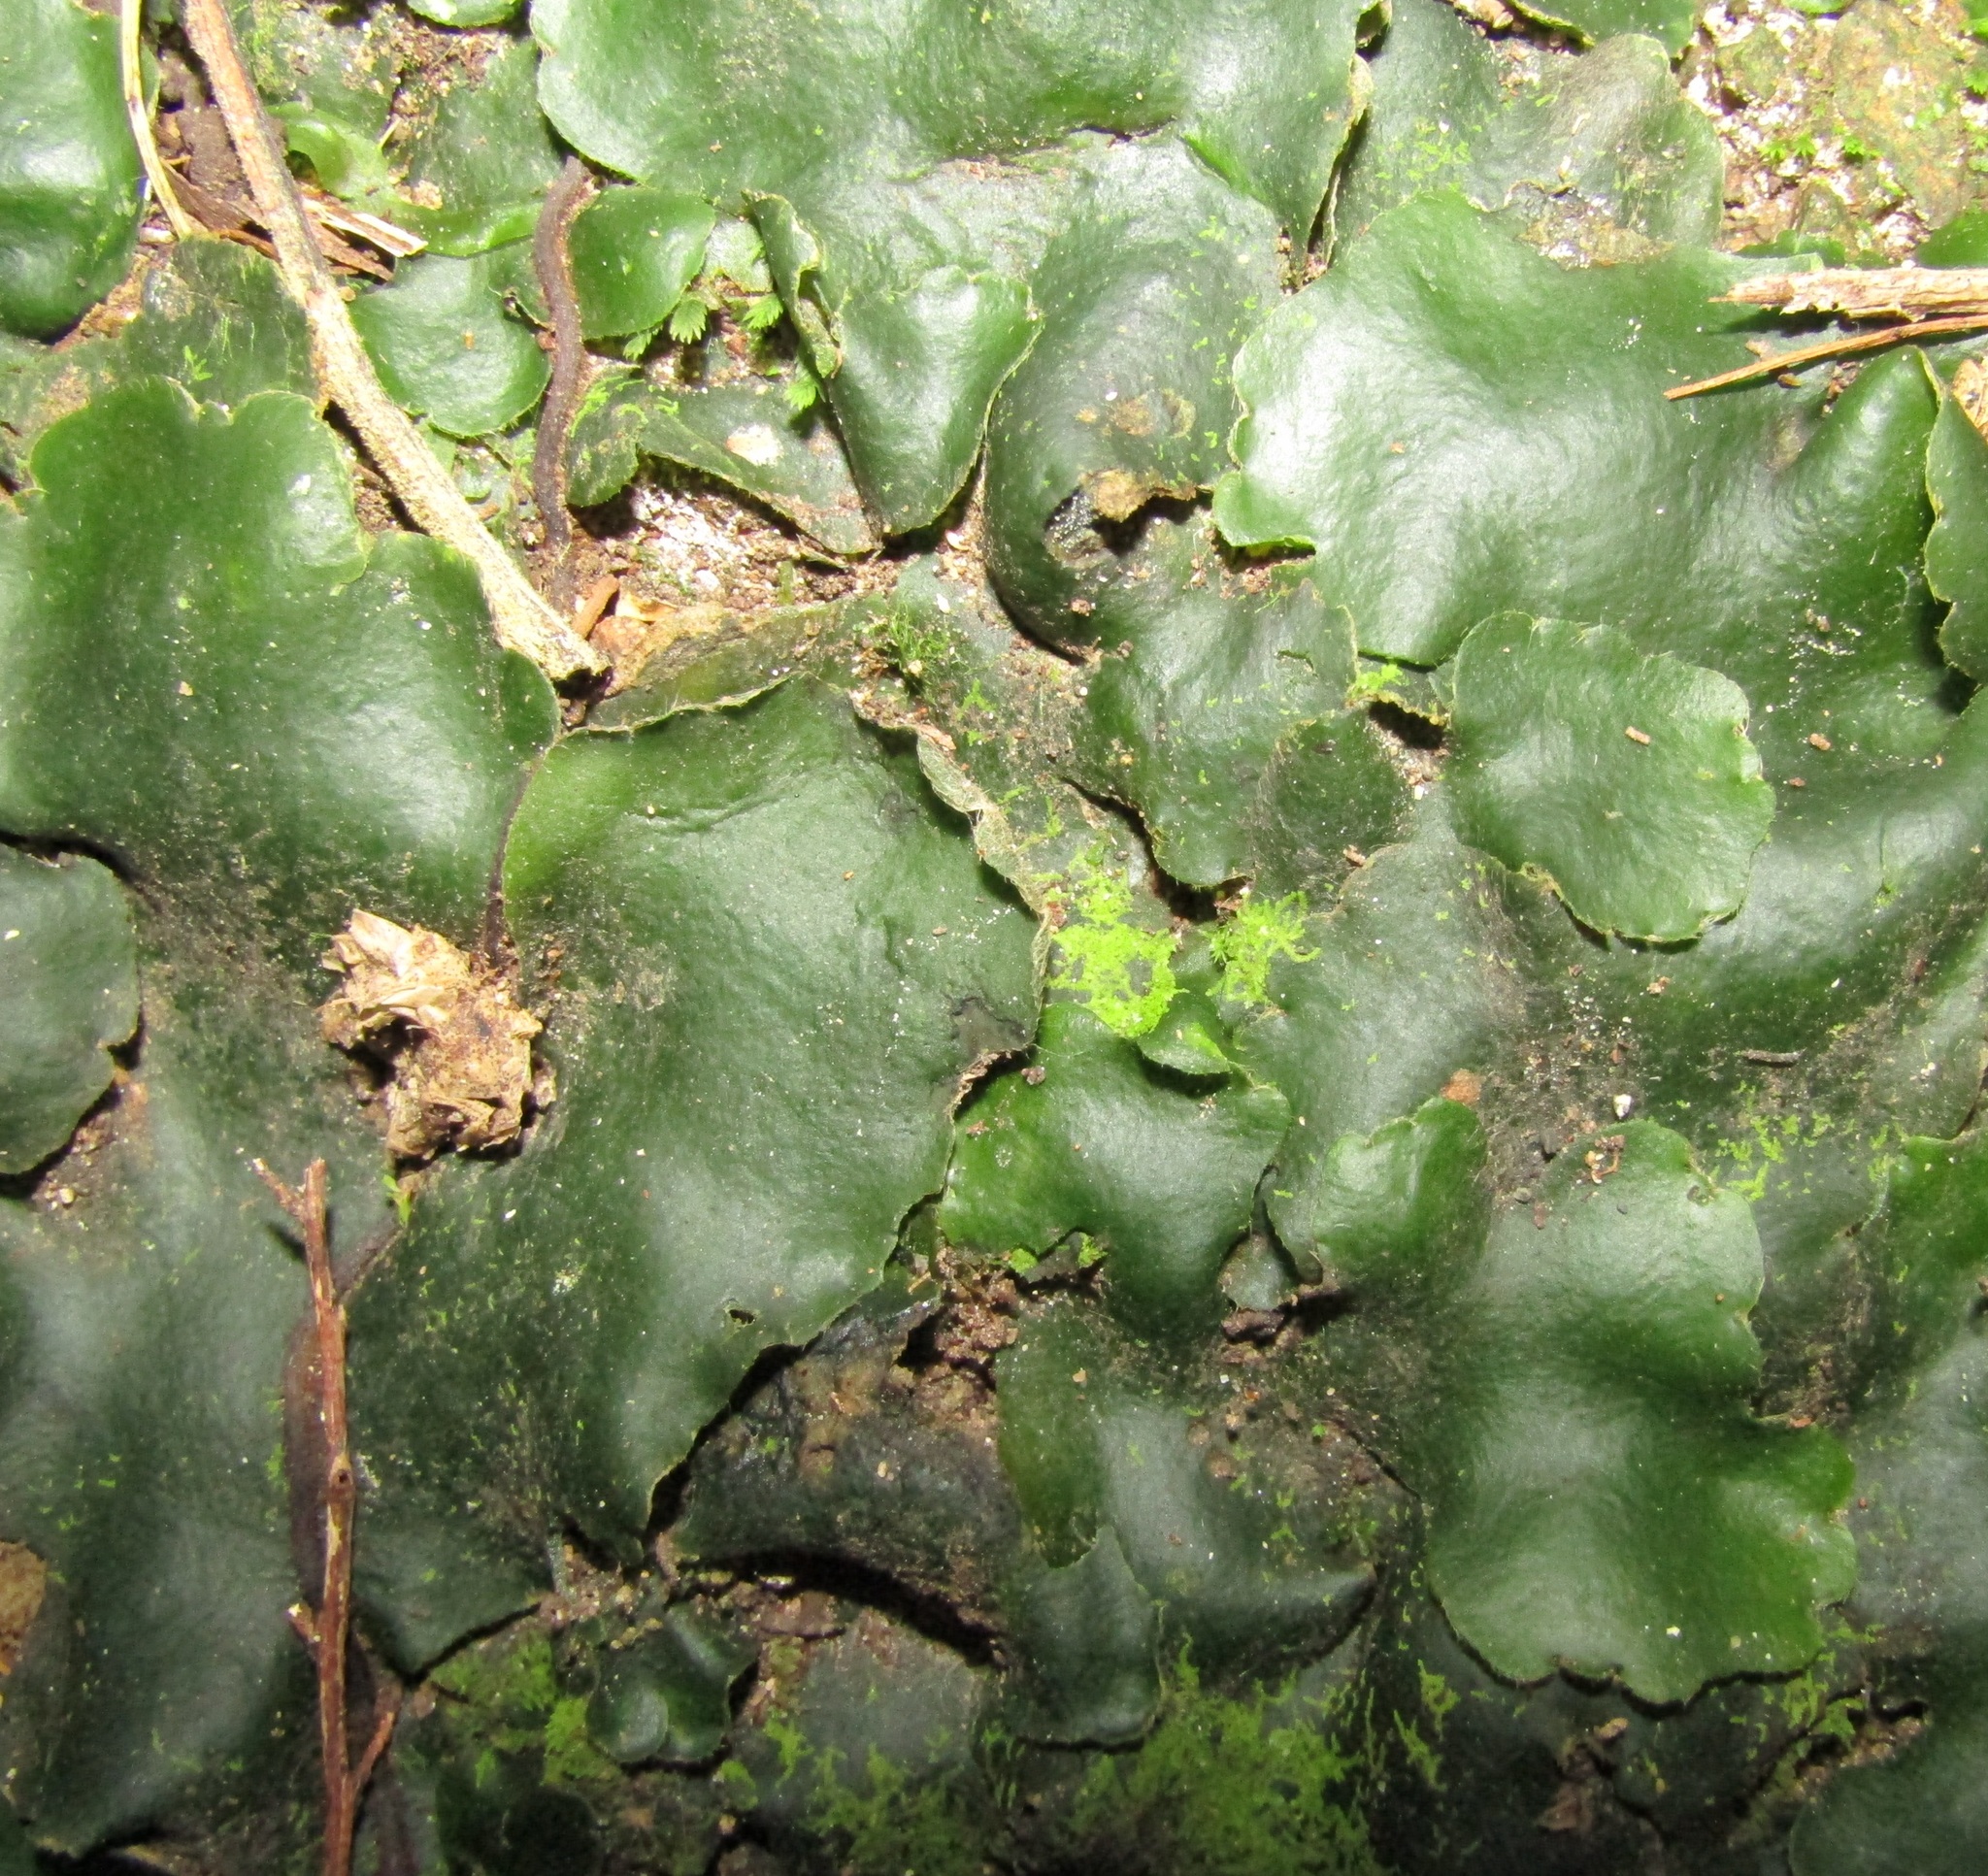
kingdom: Plantae
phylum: Marchantiophyta
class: Marchantiopsida
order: Marchantiales
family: Monocleaceae
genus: Monoclea
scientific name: Monoclea forsteri
